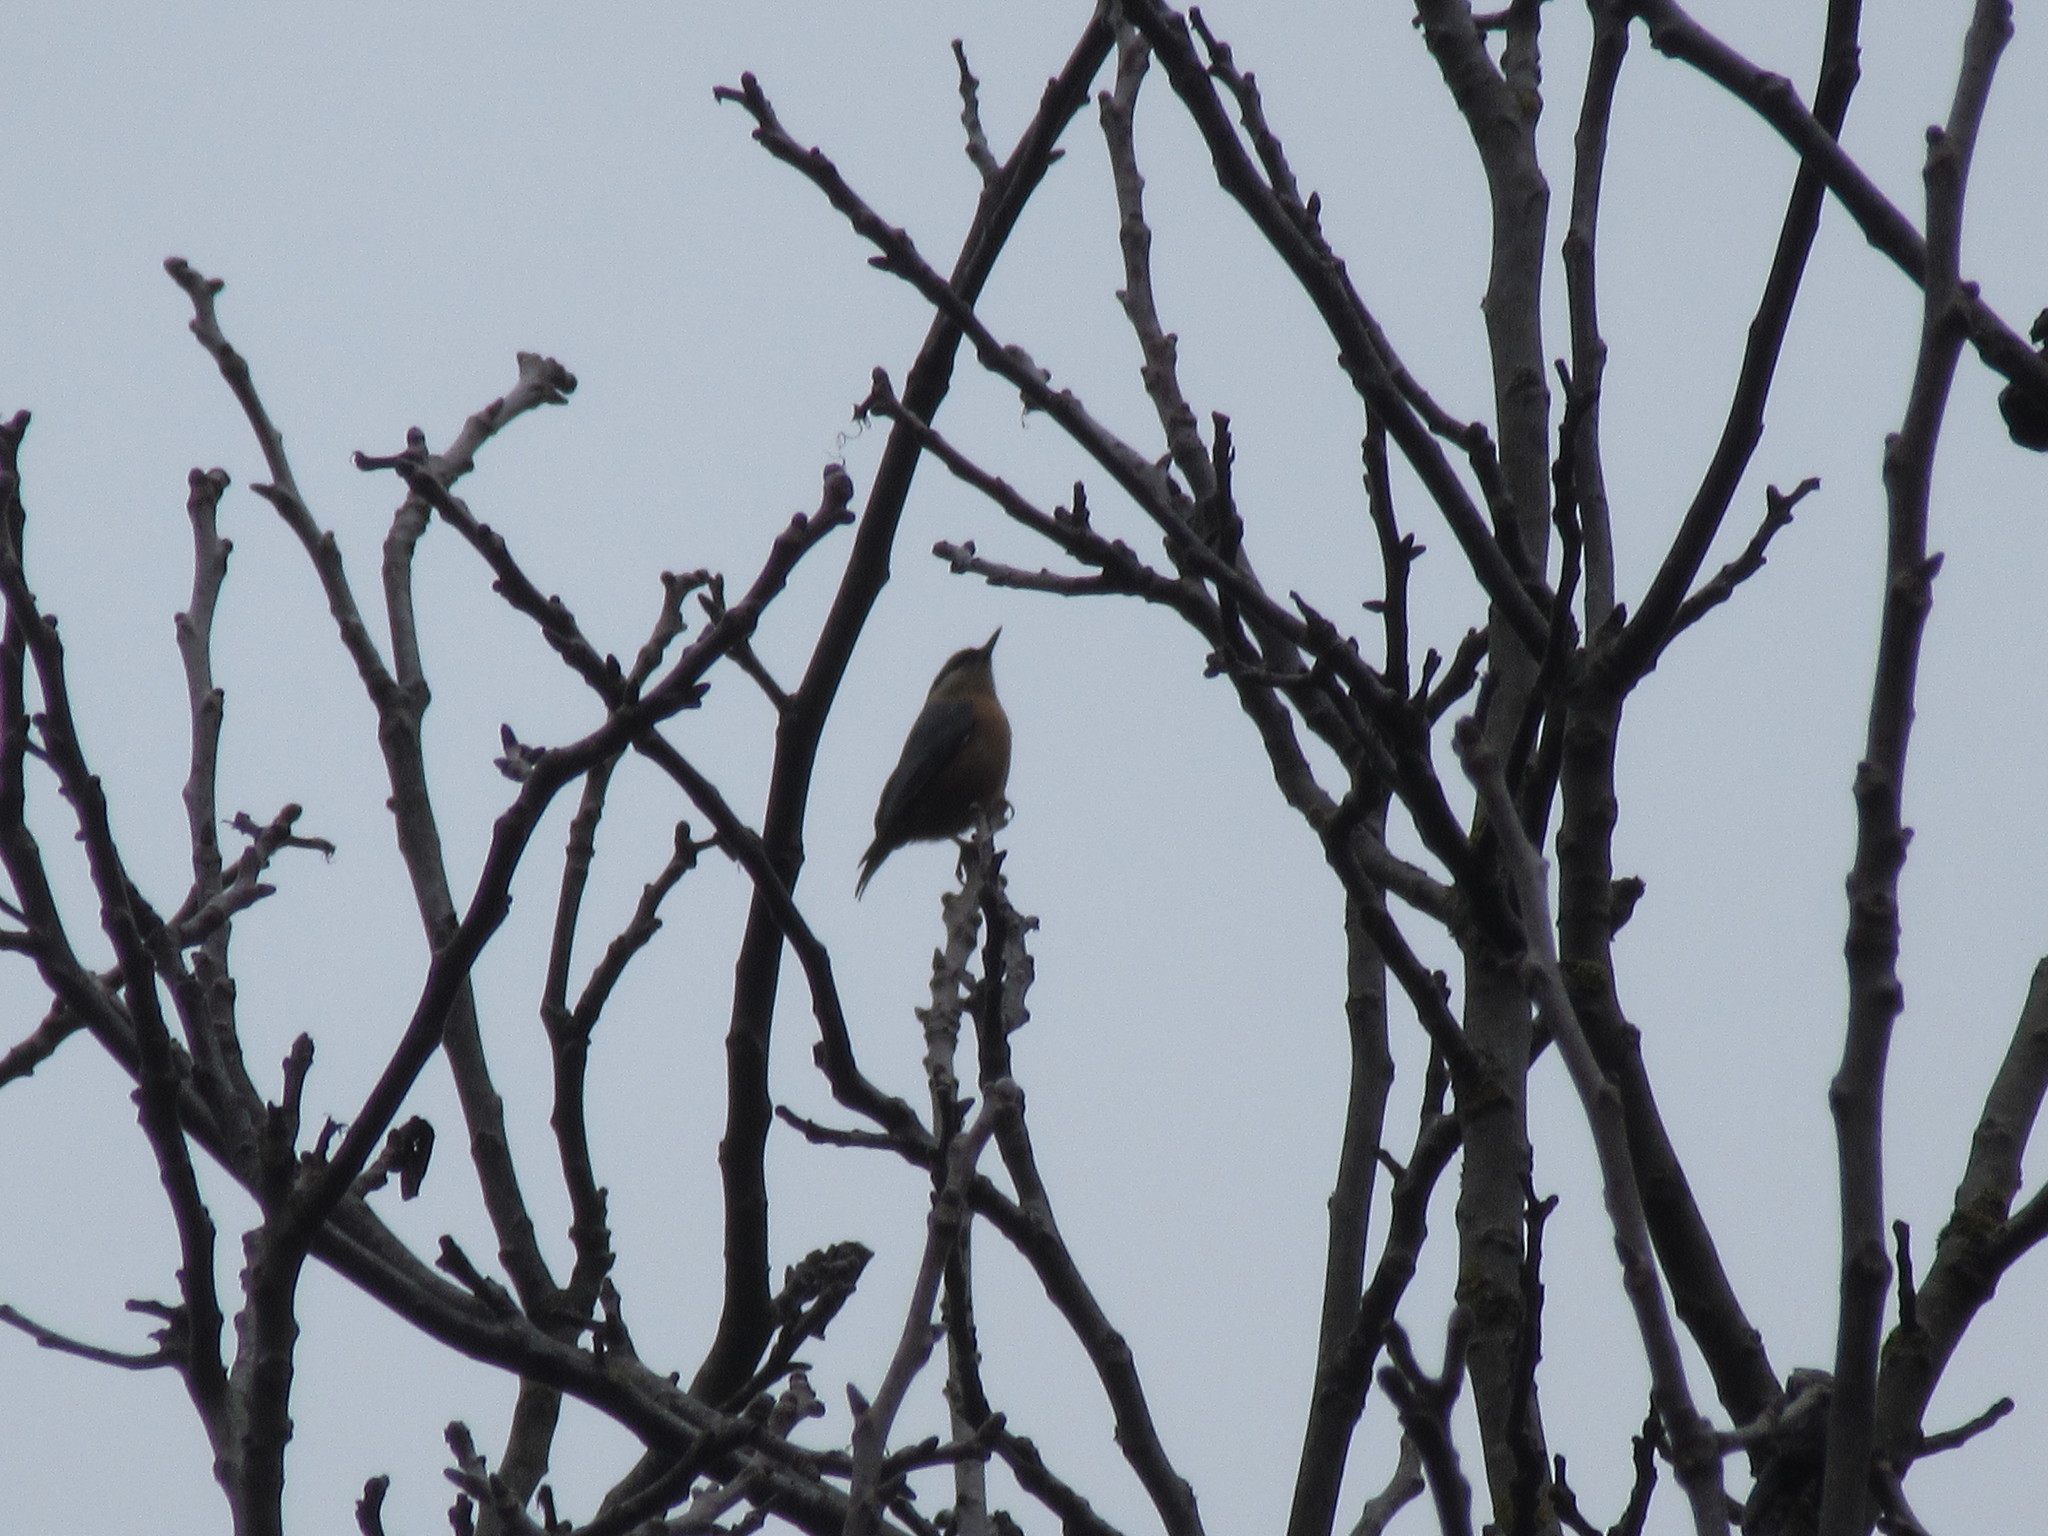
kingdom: Animalia
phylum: Chordata
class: Aves
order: Passeriformes
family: Sittidae
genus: Sitta
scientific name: Sitta europaea
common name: Eurasian nuthatch
